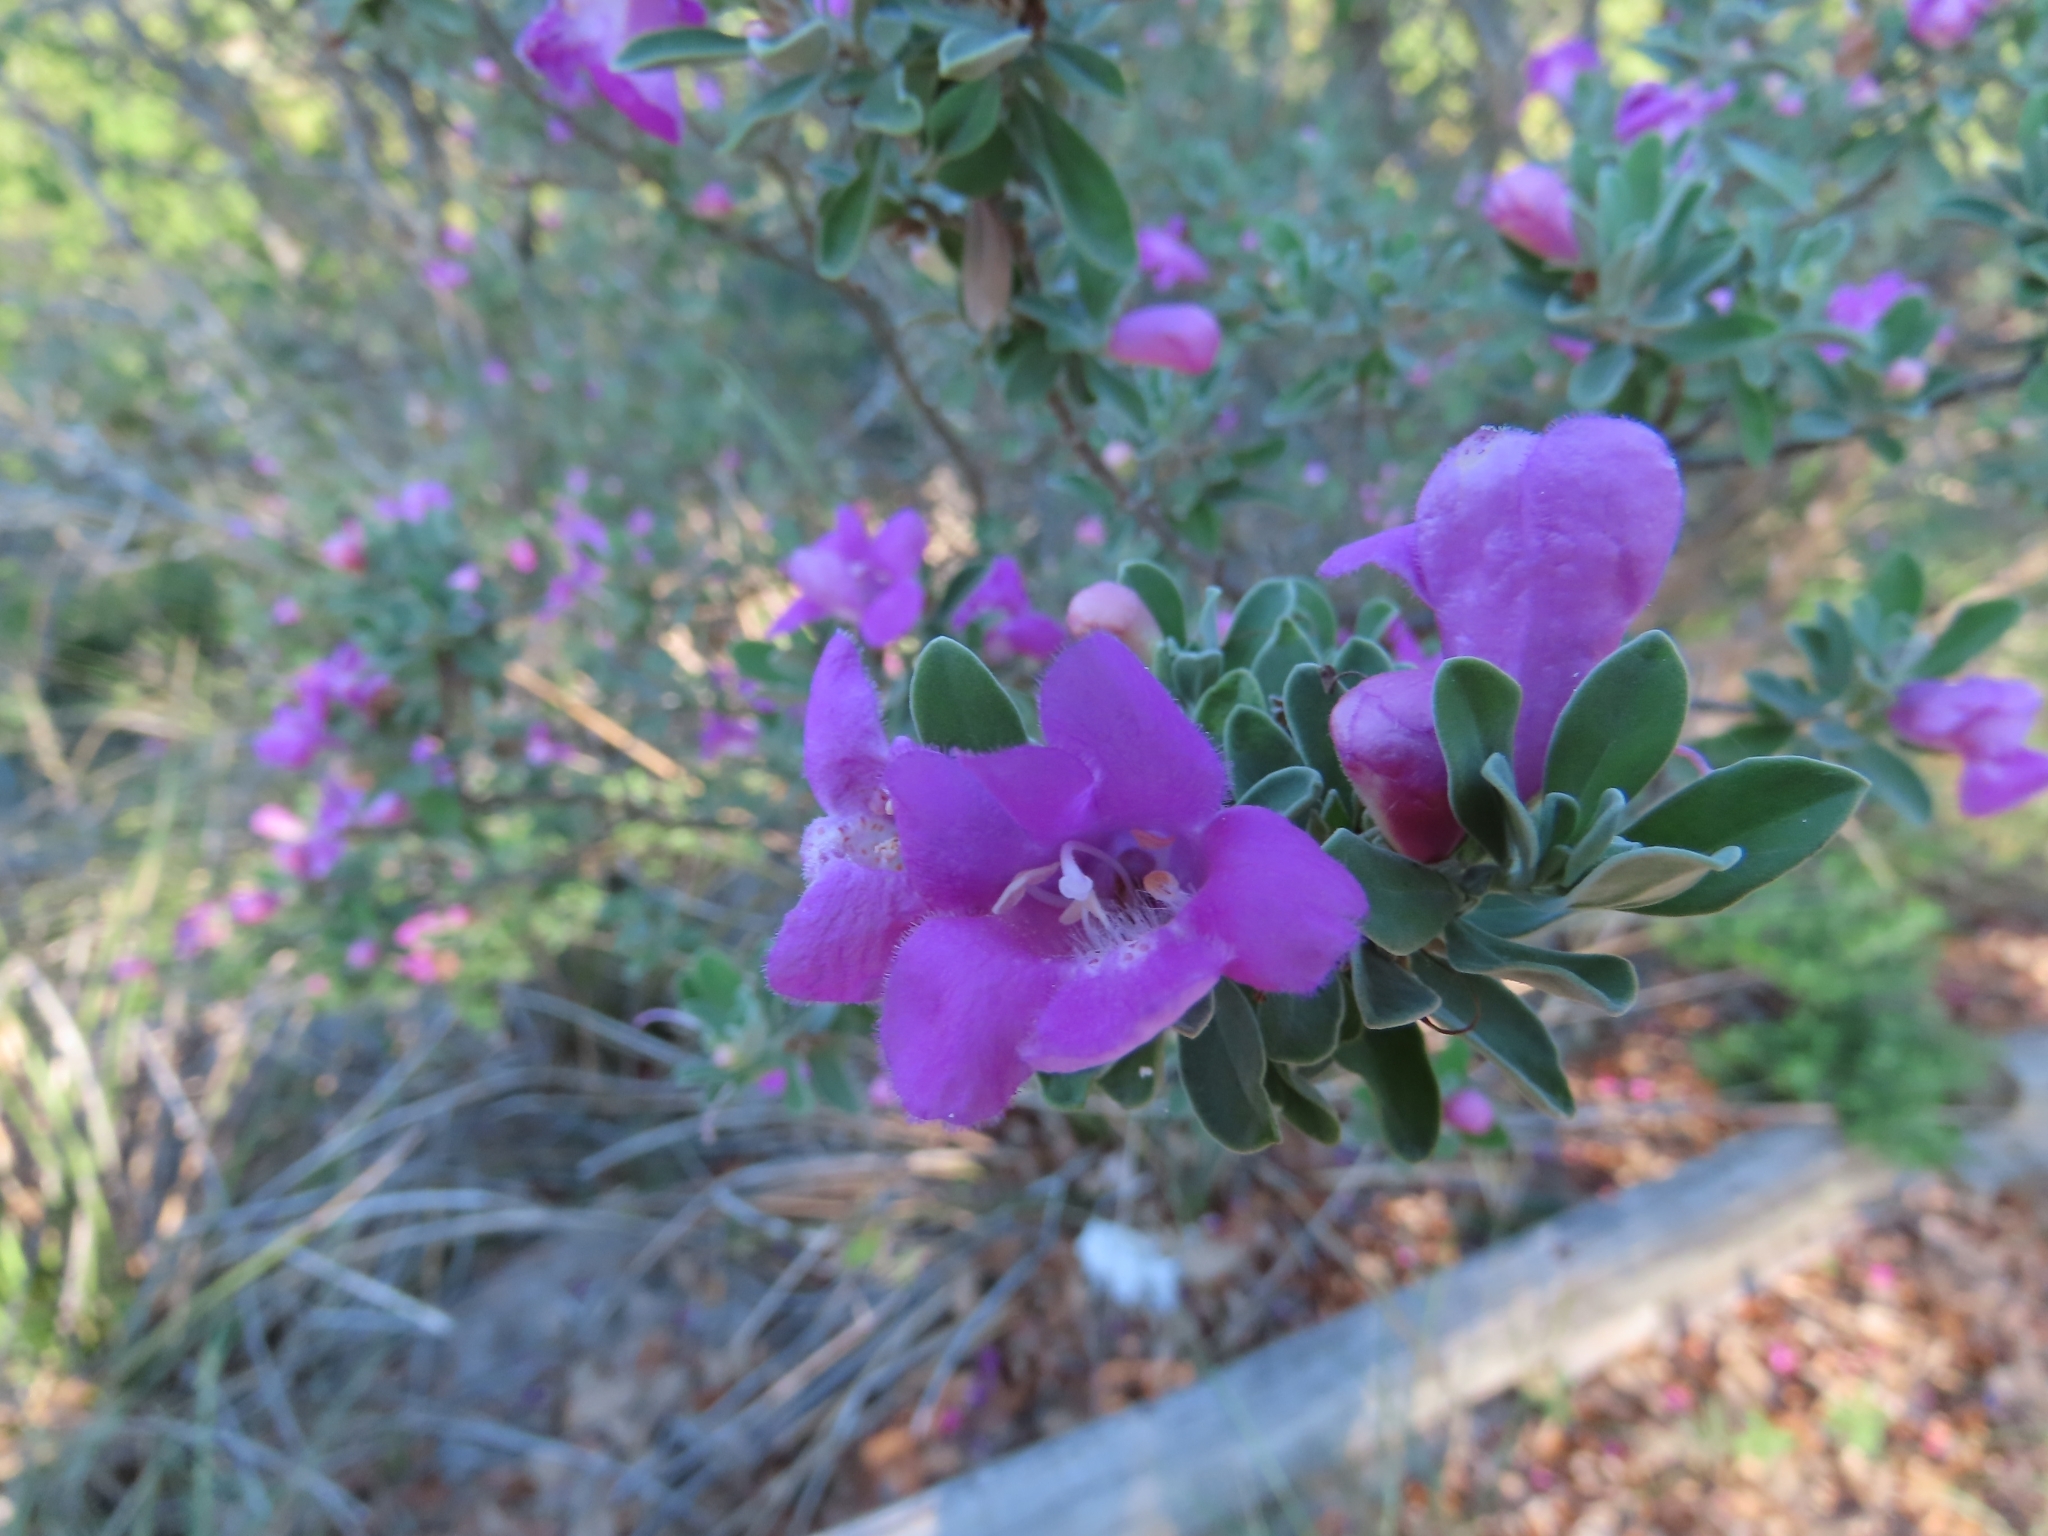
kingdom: Plantae
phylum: Tracheophyta
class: Magnoliopsida
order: Lamiales
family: Scrophulariaceae
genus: Leucophyllum
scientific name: Leucophyllum frutescens
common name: Texas silverleaf
